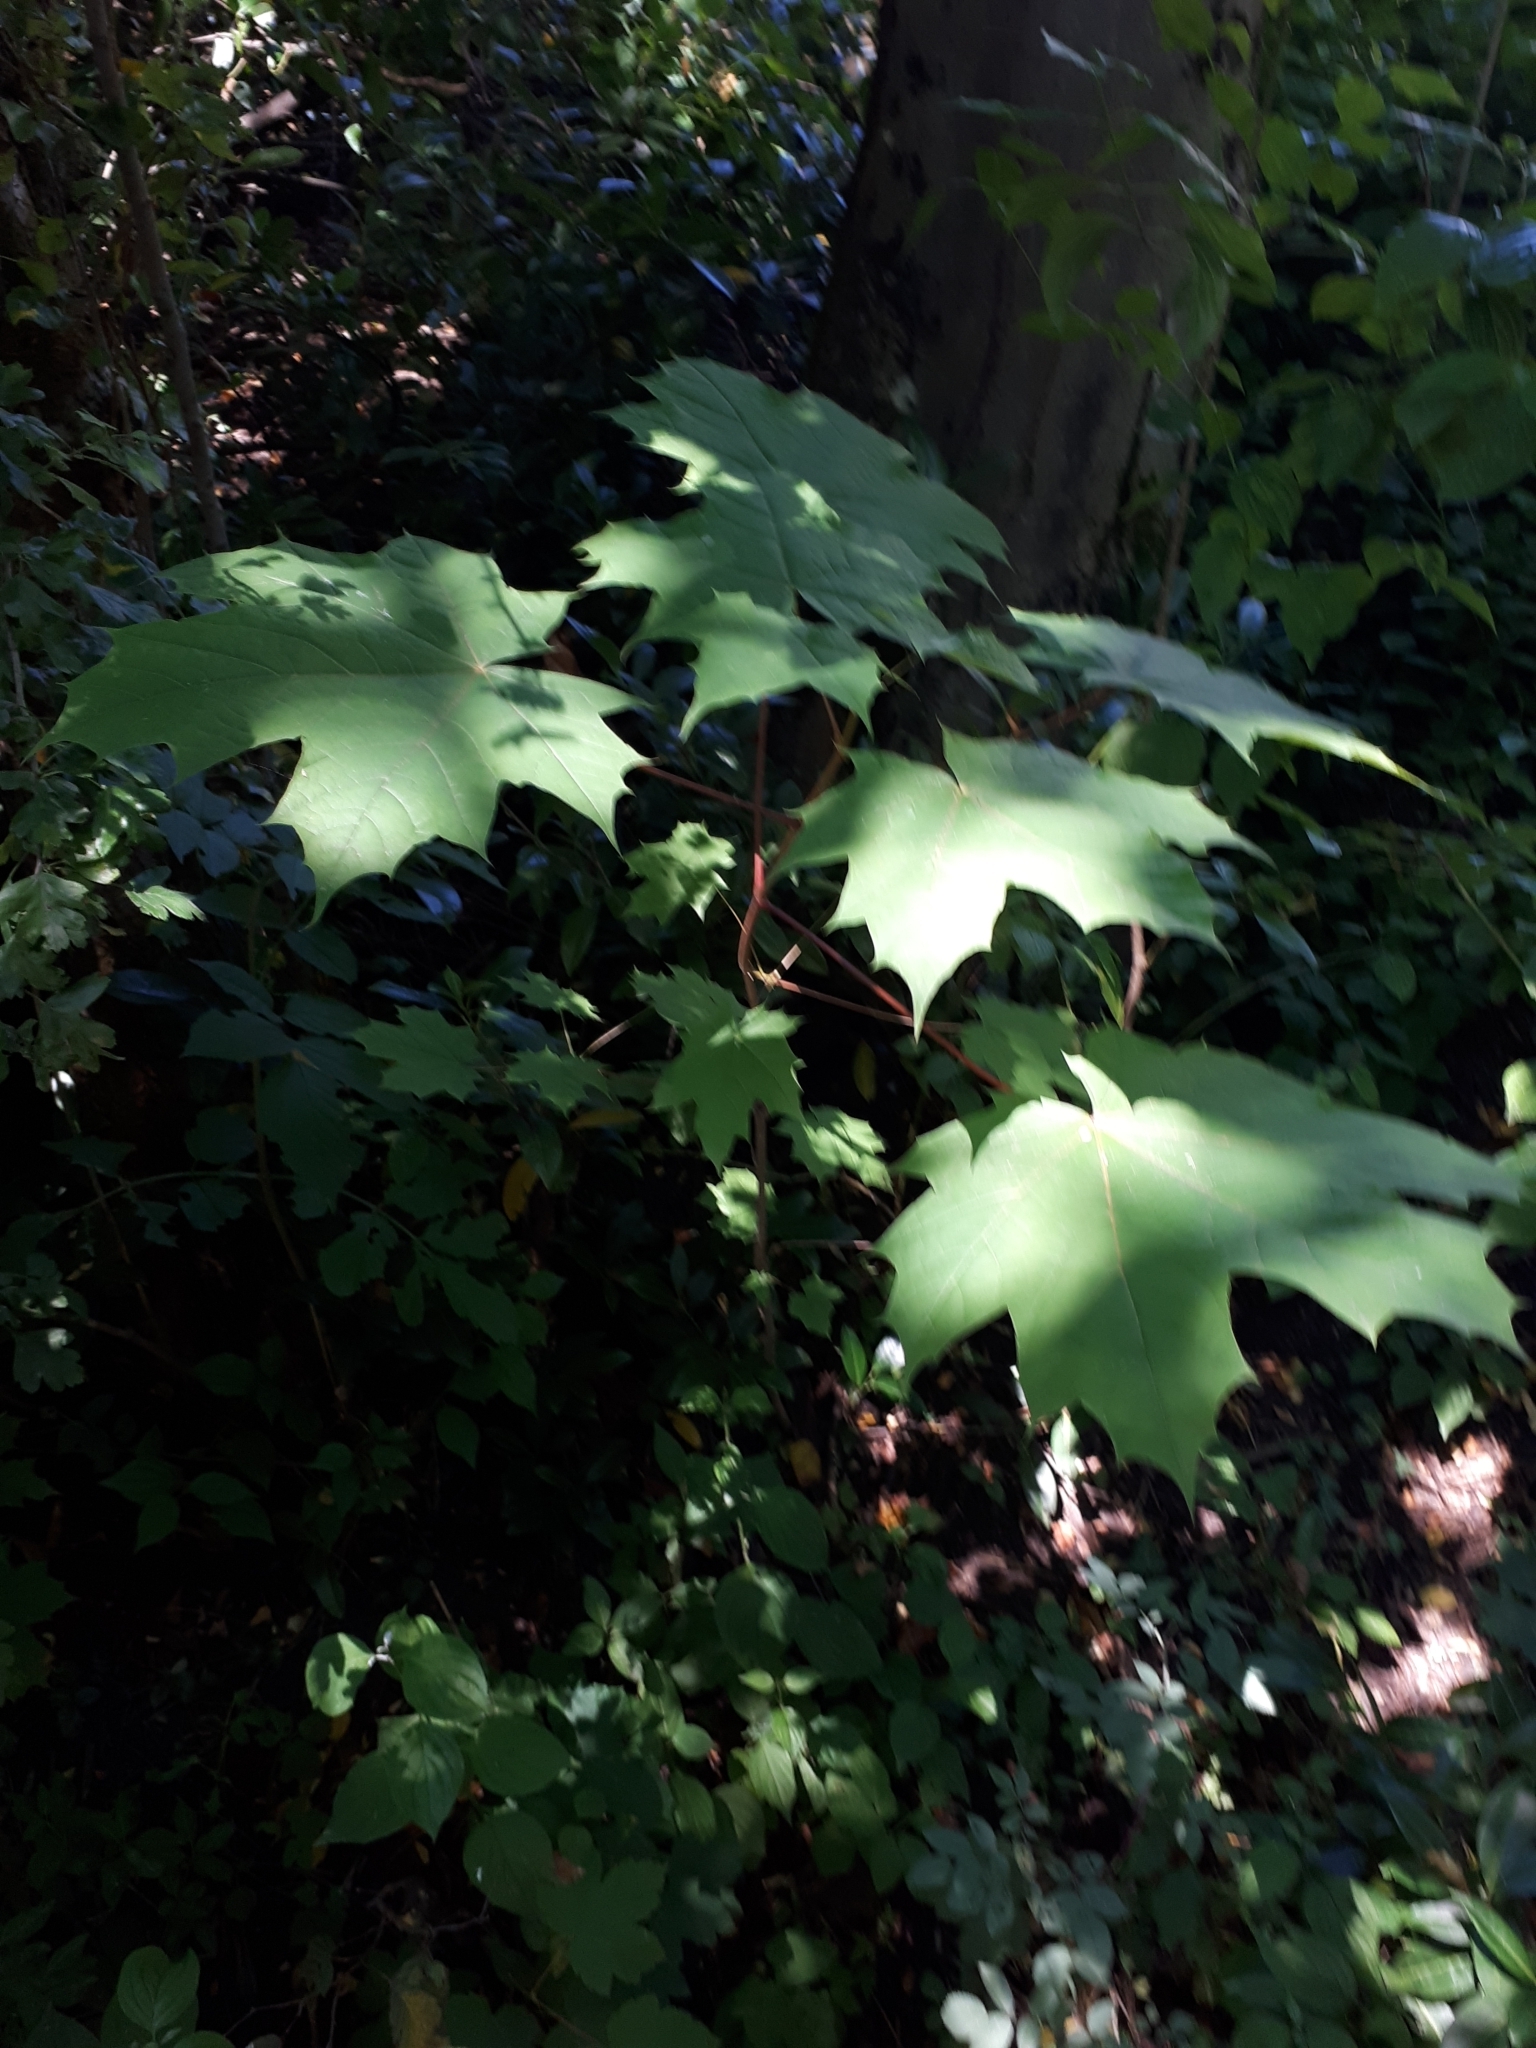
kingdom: Plantae
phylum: Tracheophyta
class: Magnoliopsida
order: Sapindales
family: Sapindaceae
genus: Acer
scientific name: Acer platanoides
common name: Norway maple
